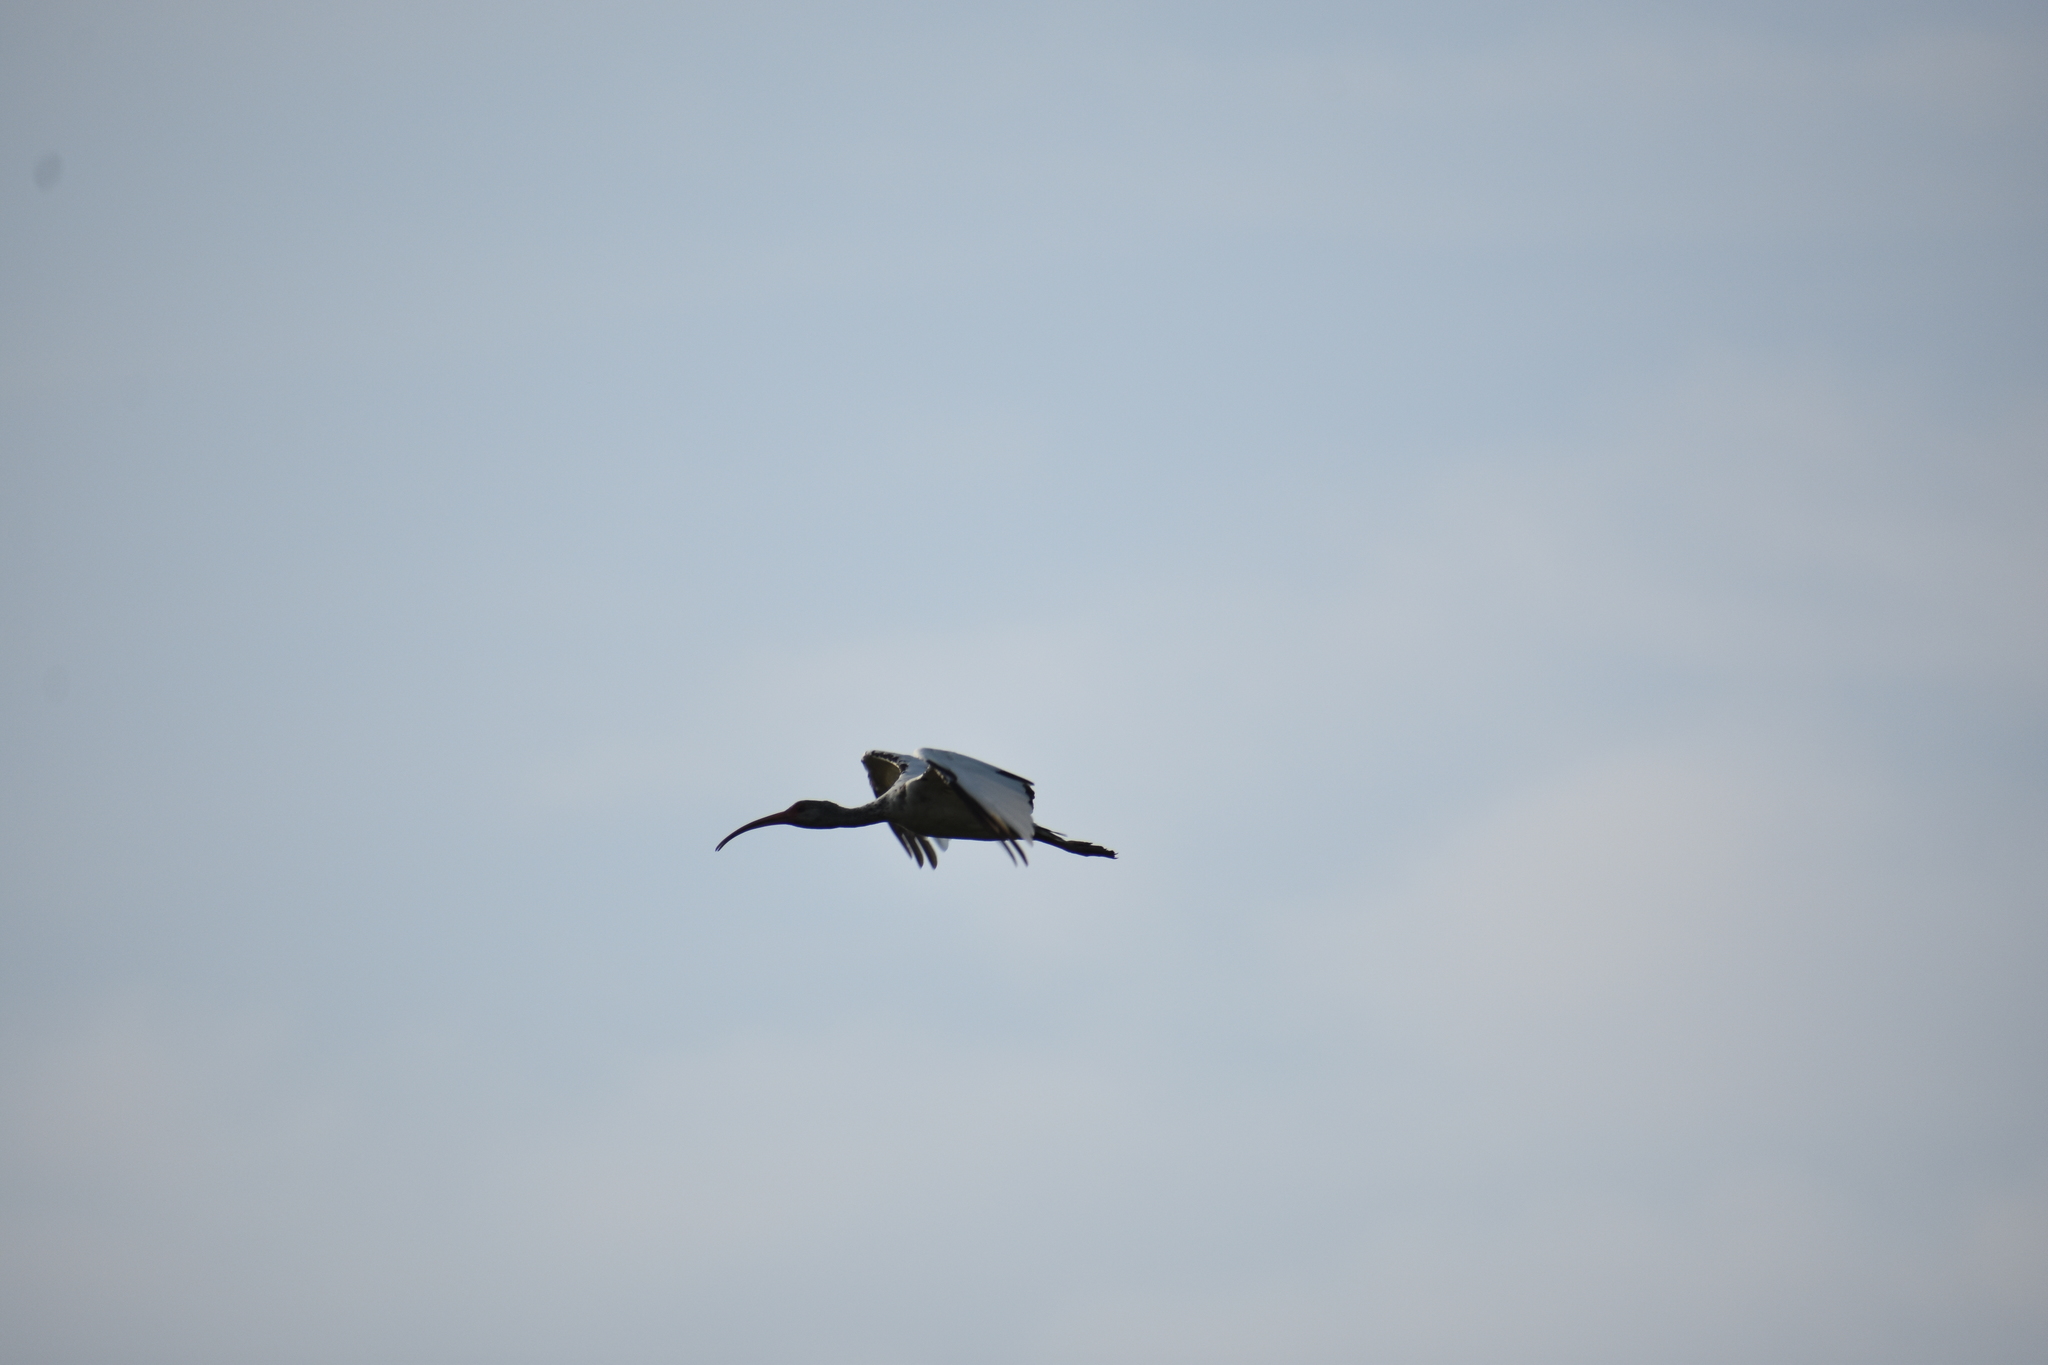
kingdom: Animalia
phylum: Chordata
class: Aves
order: Pelecaniformes
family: Threskiornithidae
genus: Eudocimus
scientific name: Eudocimus albus
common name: White ibis
